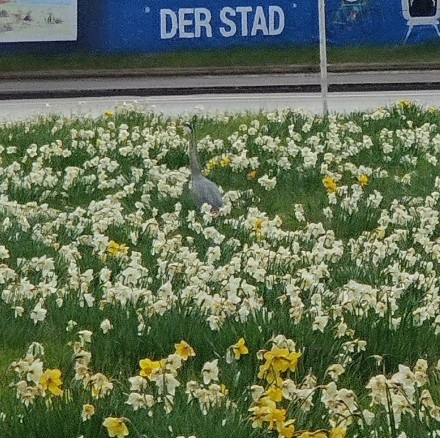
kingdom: Animalia
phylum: Chordata
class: Aves
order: Pelecaniformes
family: Ardeidae
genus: Ardea
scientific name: Ardea cinerea
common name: Grey heron
